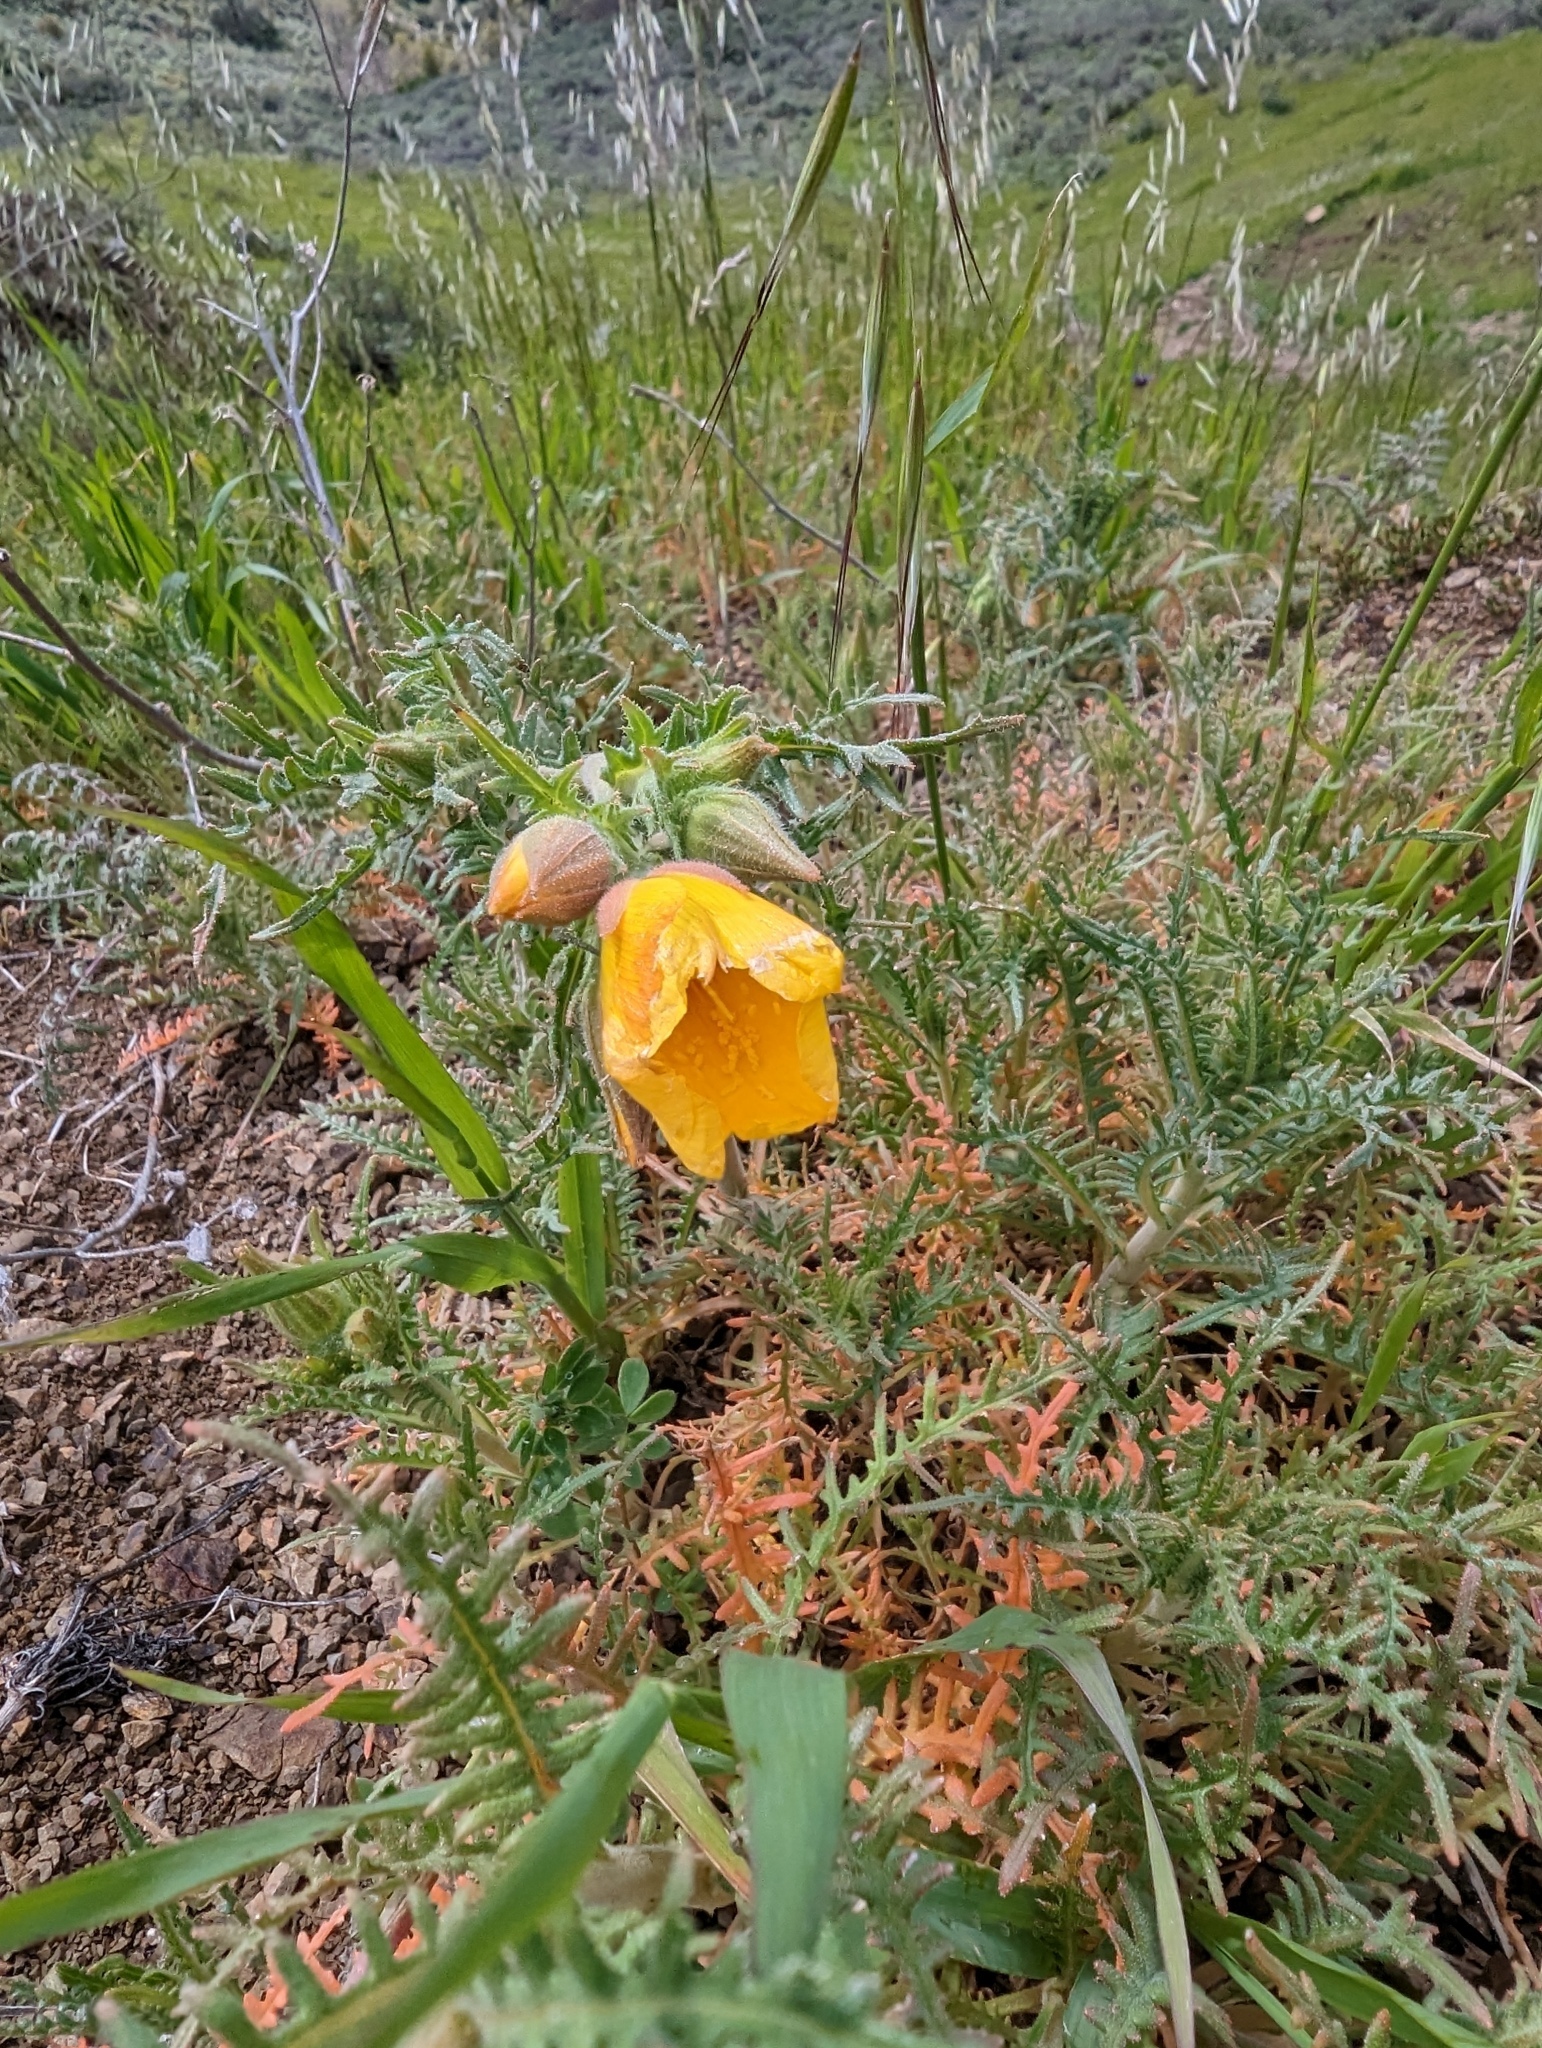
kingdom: Plantae
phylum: Tracheophyta
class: Magnoliopsida
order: Cornales
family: Loasaceae
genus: Mentzelia
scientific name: Mentzelia lindleyi
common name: Golden bartonia
